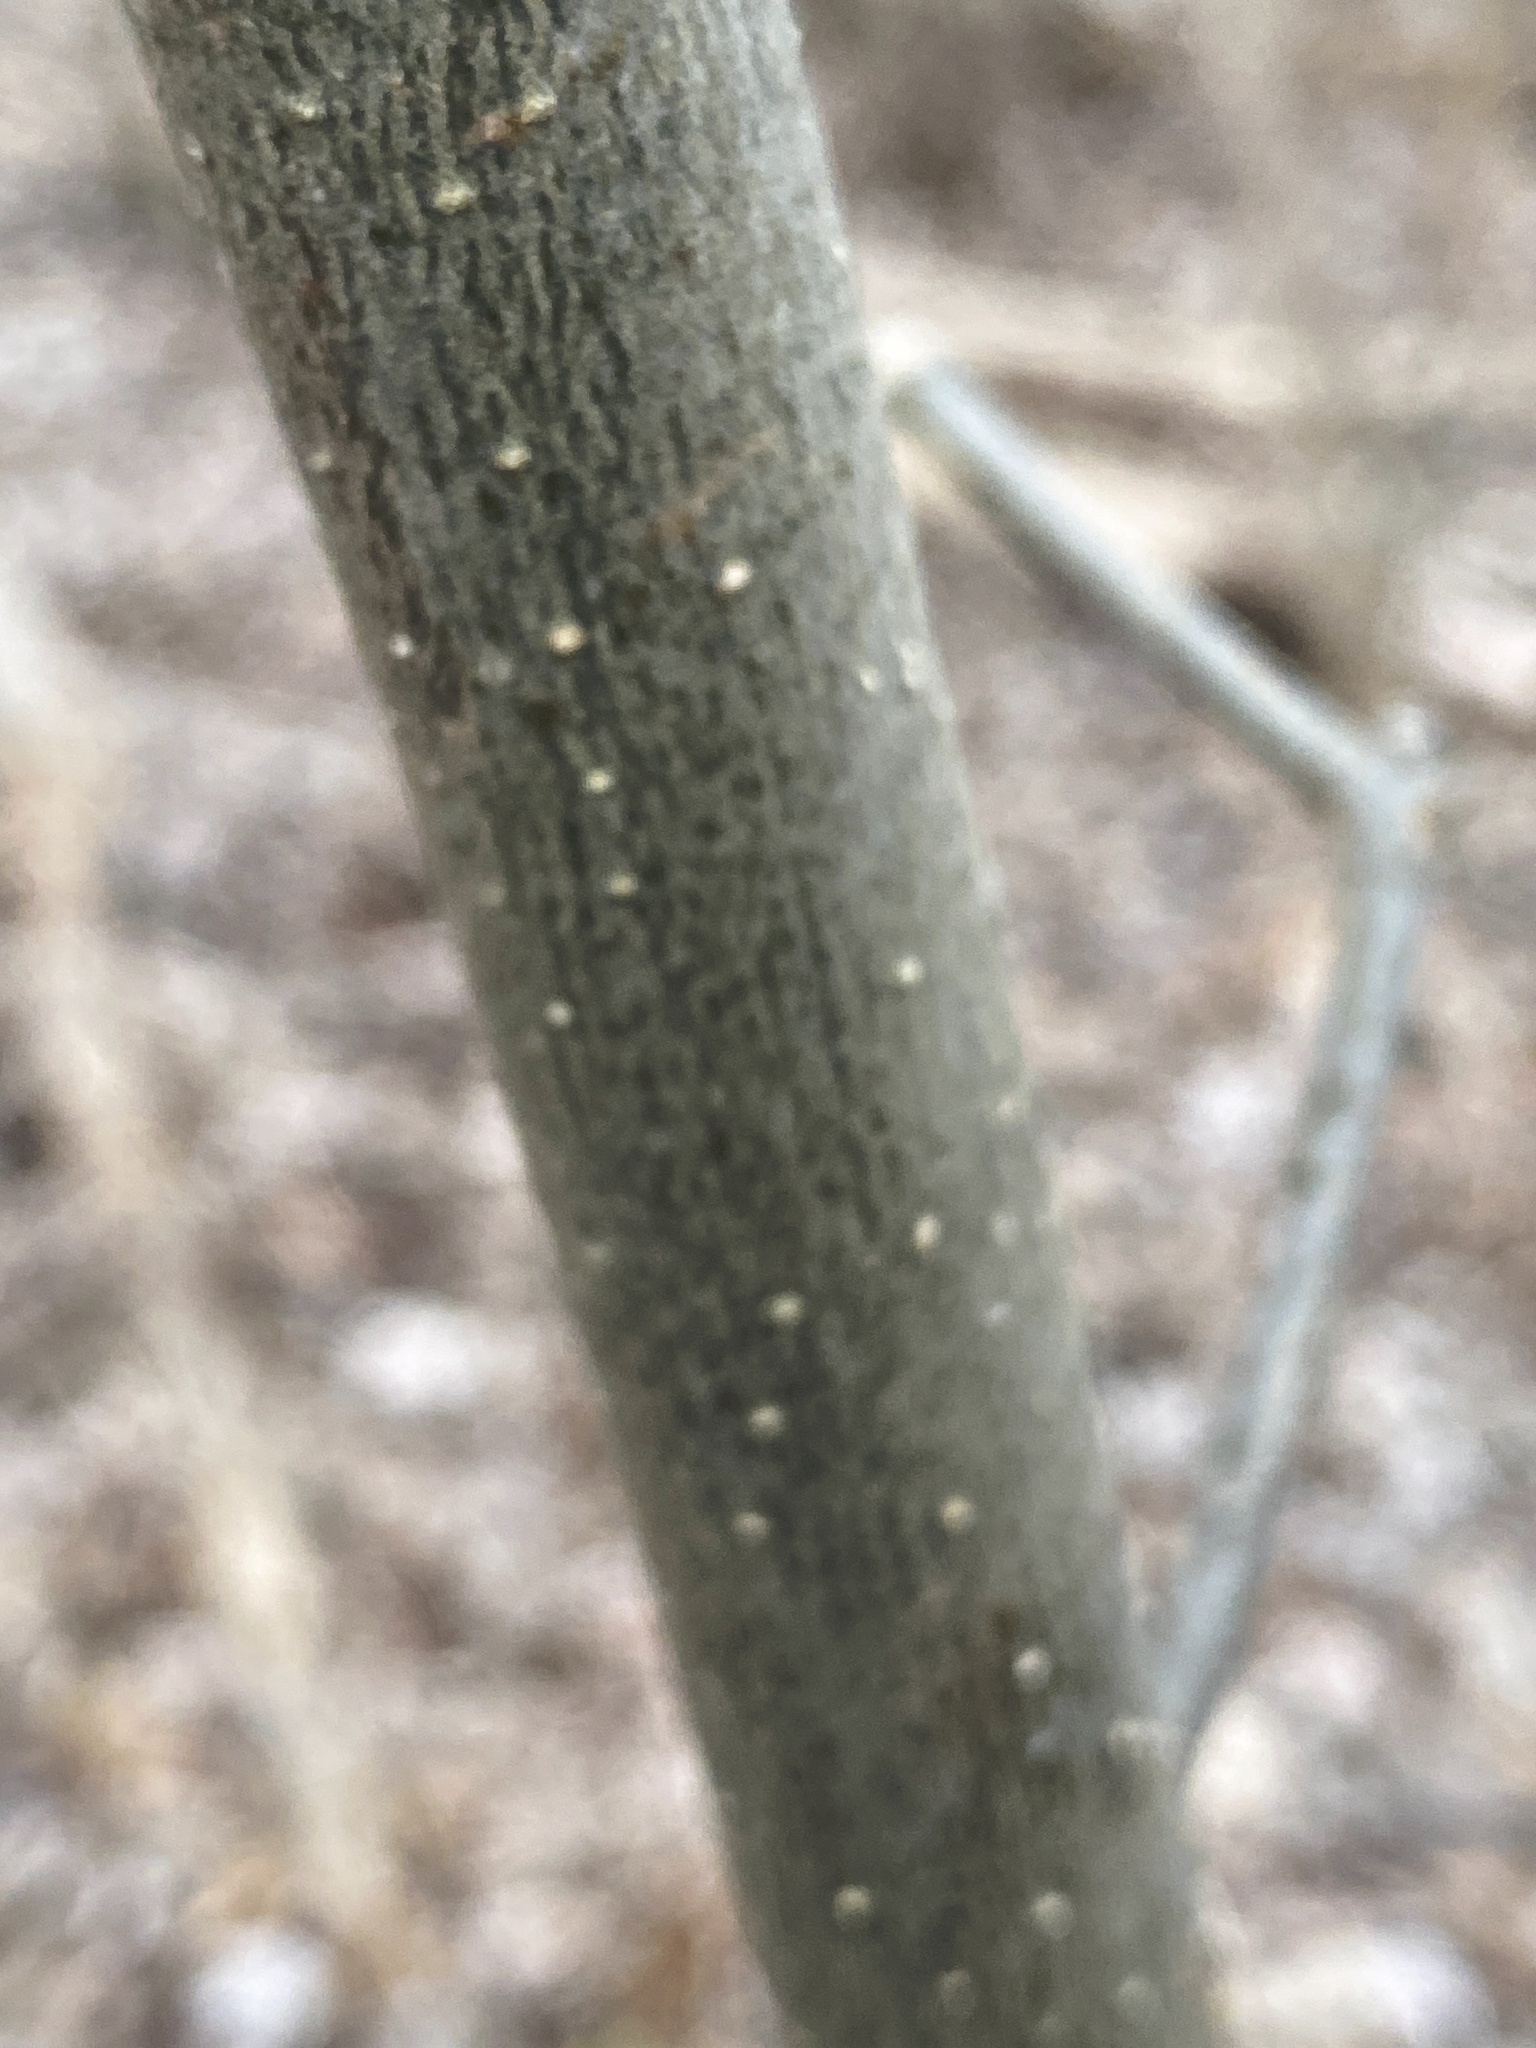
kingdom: Plantae
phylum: Tracheophyta
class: Magnoliopsida
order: Lamiales
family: Oleaceae
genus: Fraxinus
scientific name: Fraxinus nigra
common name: Black ash
